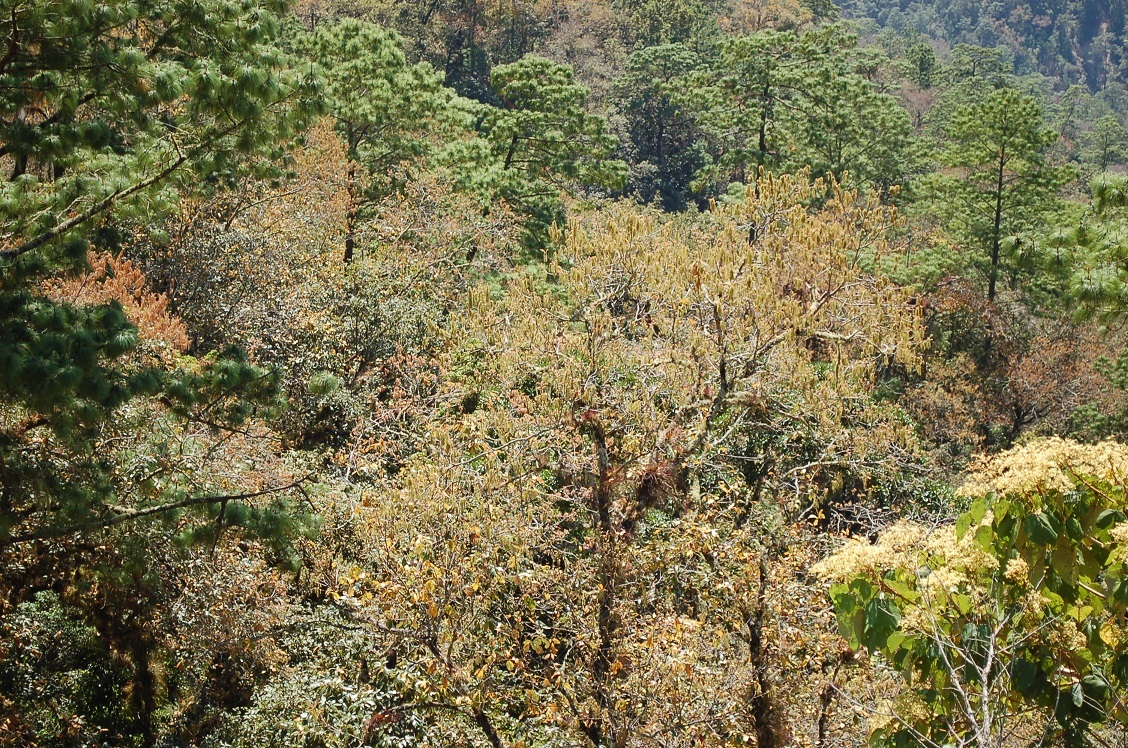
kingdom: Plantae
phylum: Tracheophyta
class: Magnoliopsida
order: Fagales
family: Fagaceae
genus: Quercus
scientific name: Quercus calophylla
